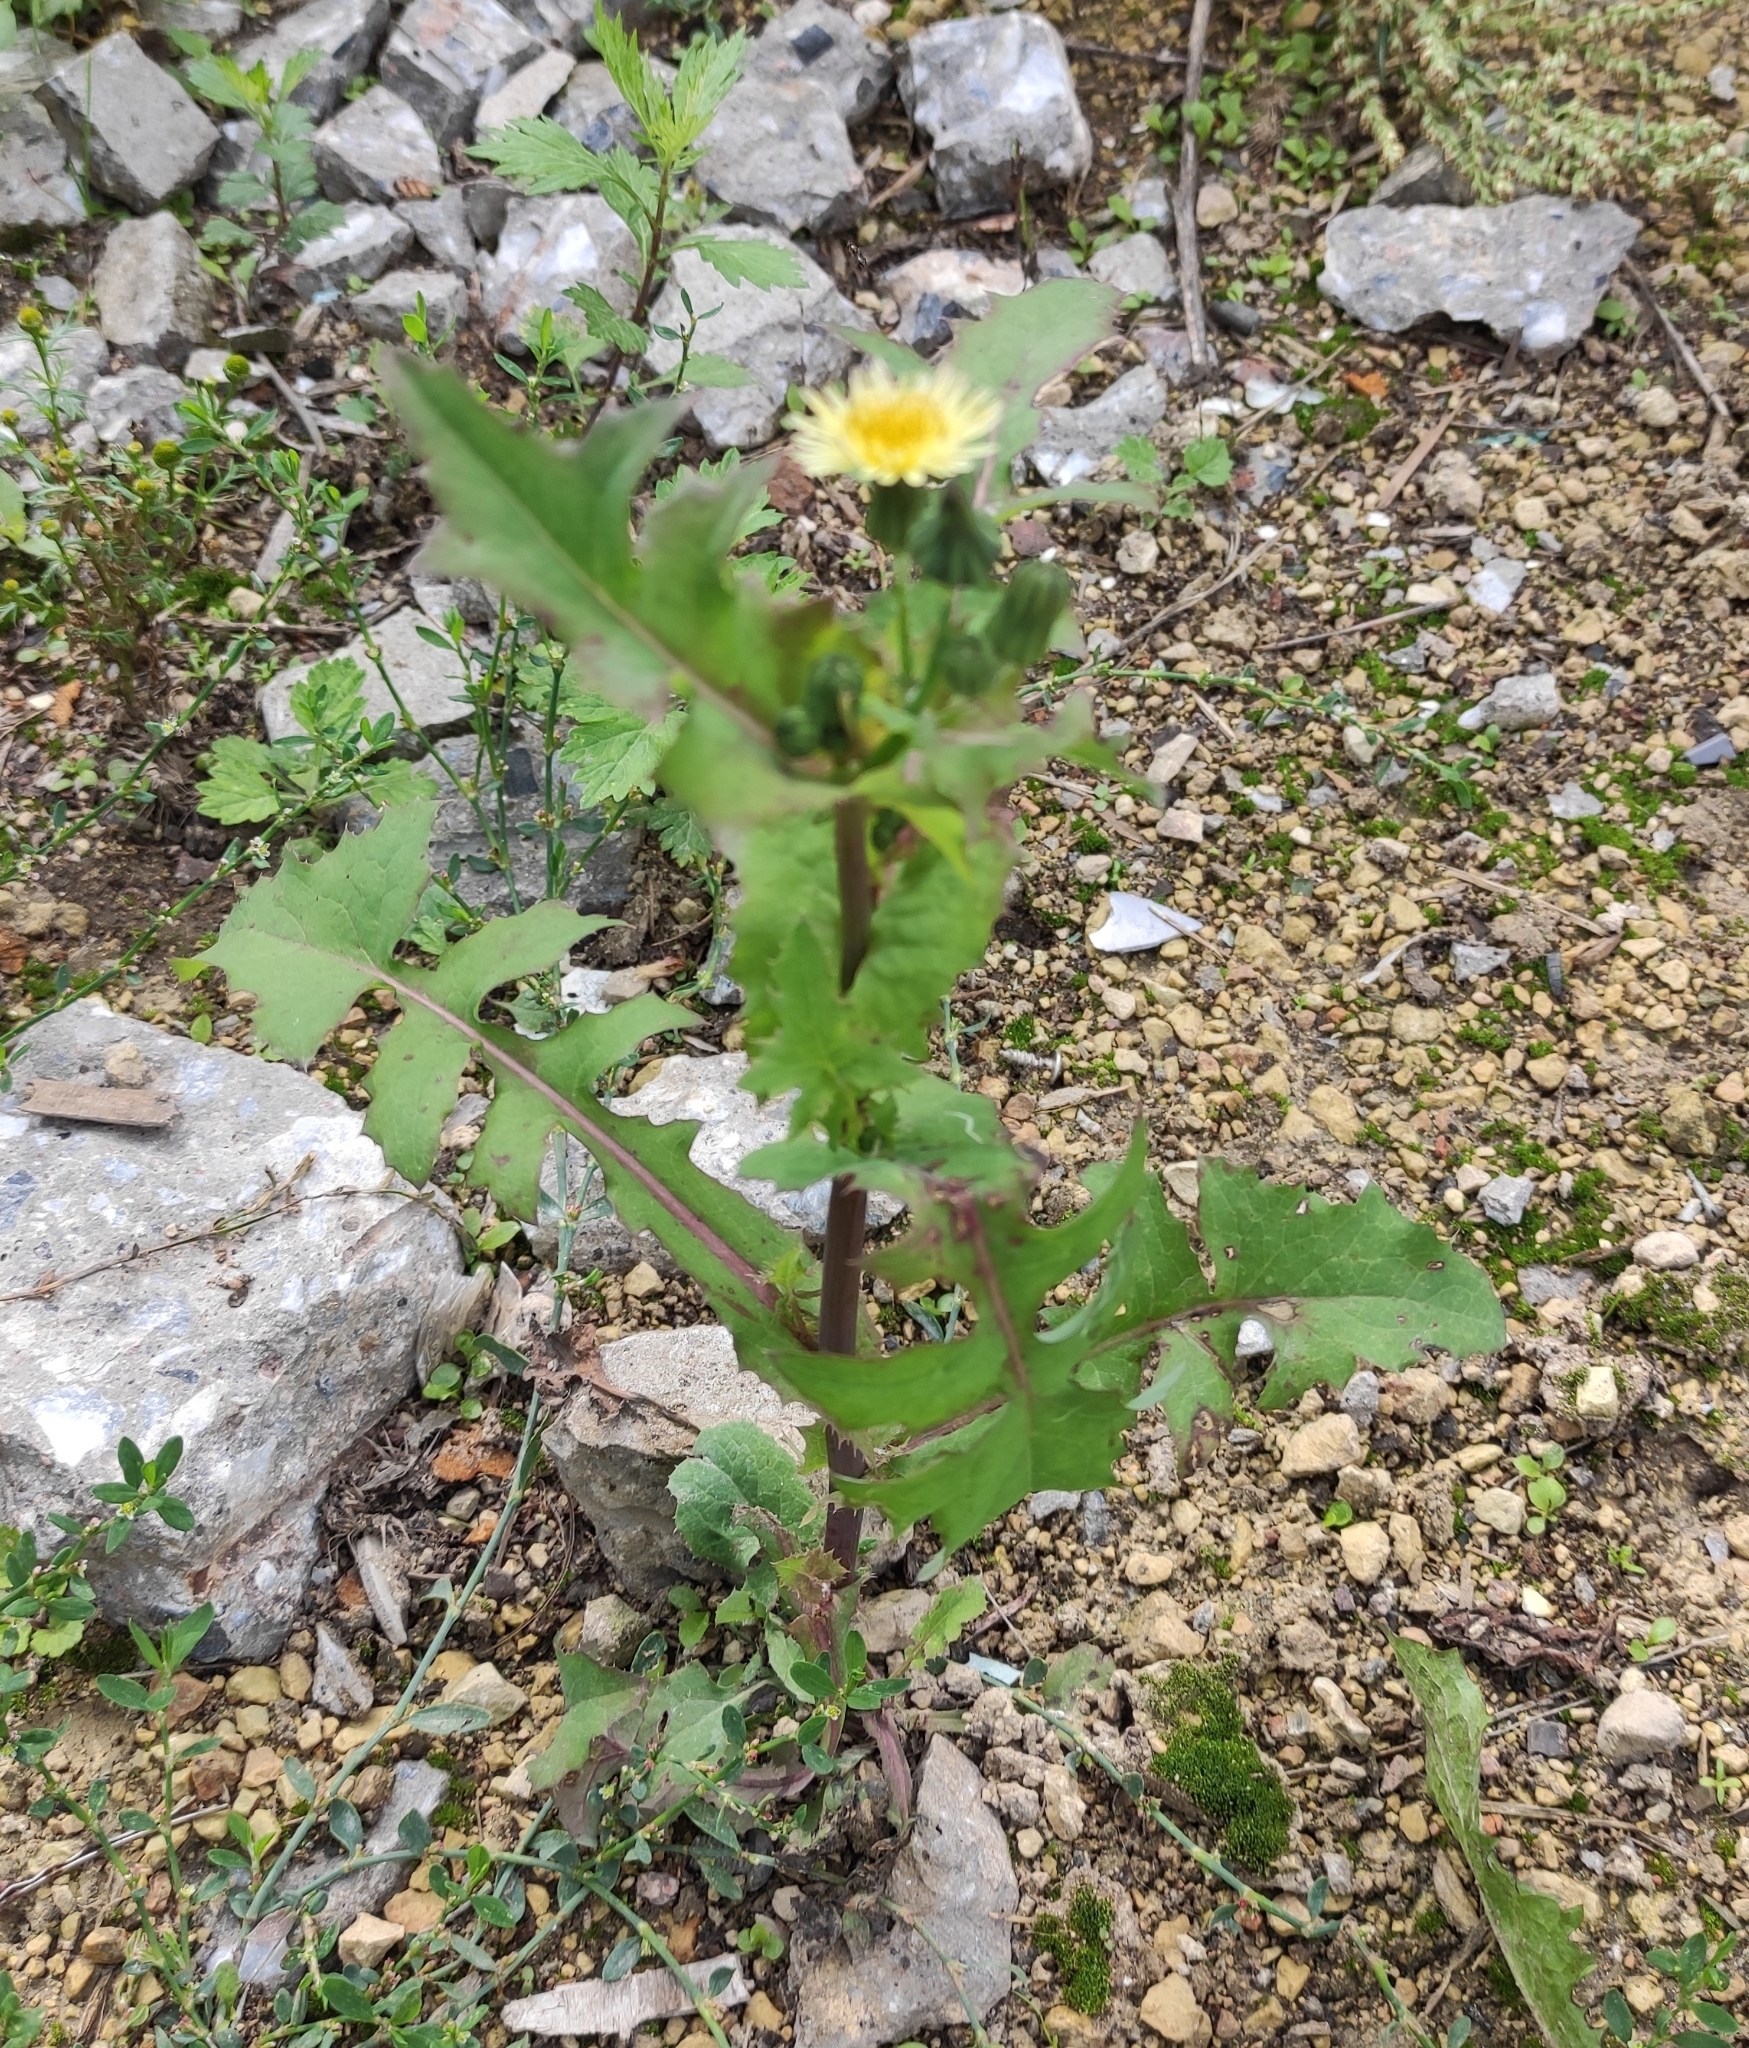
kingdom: Plantae
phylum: Tracheophyta
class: Magnoliopsida
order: Asterales
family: Asteraceae
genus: Sonchus
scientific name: Sonchus oleraceus
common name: Common sowthistle
